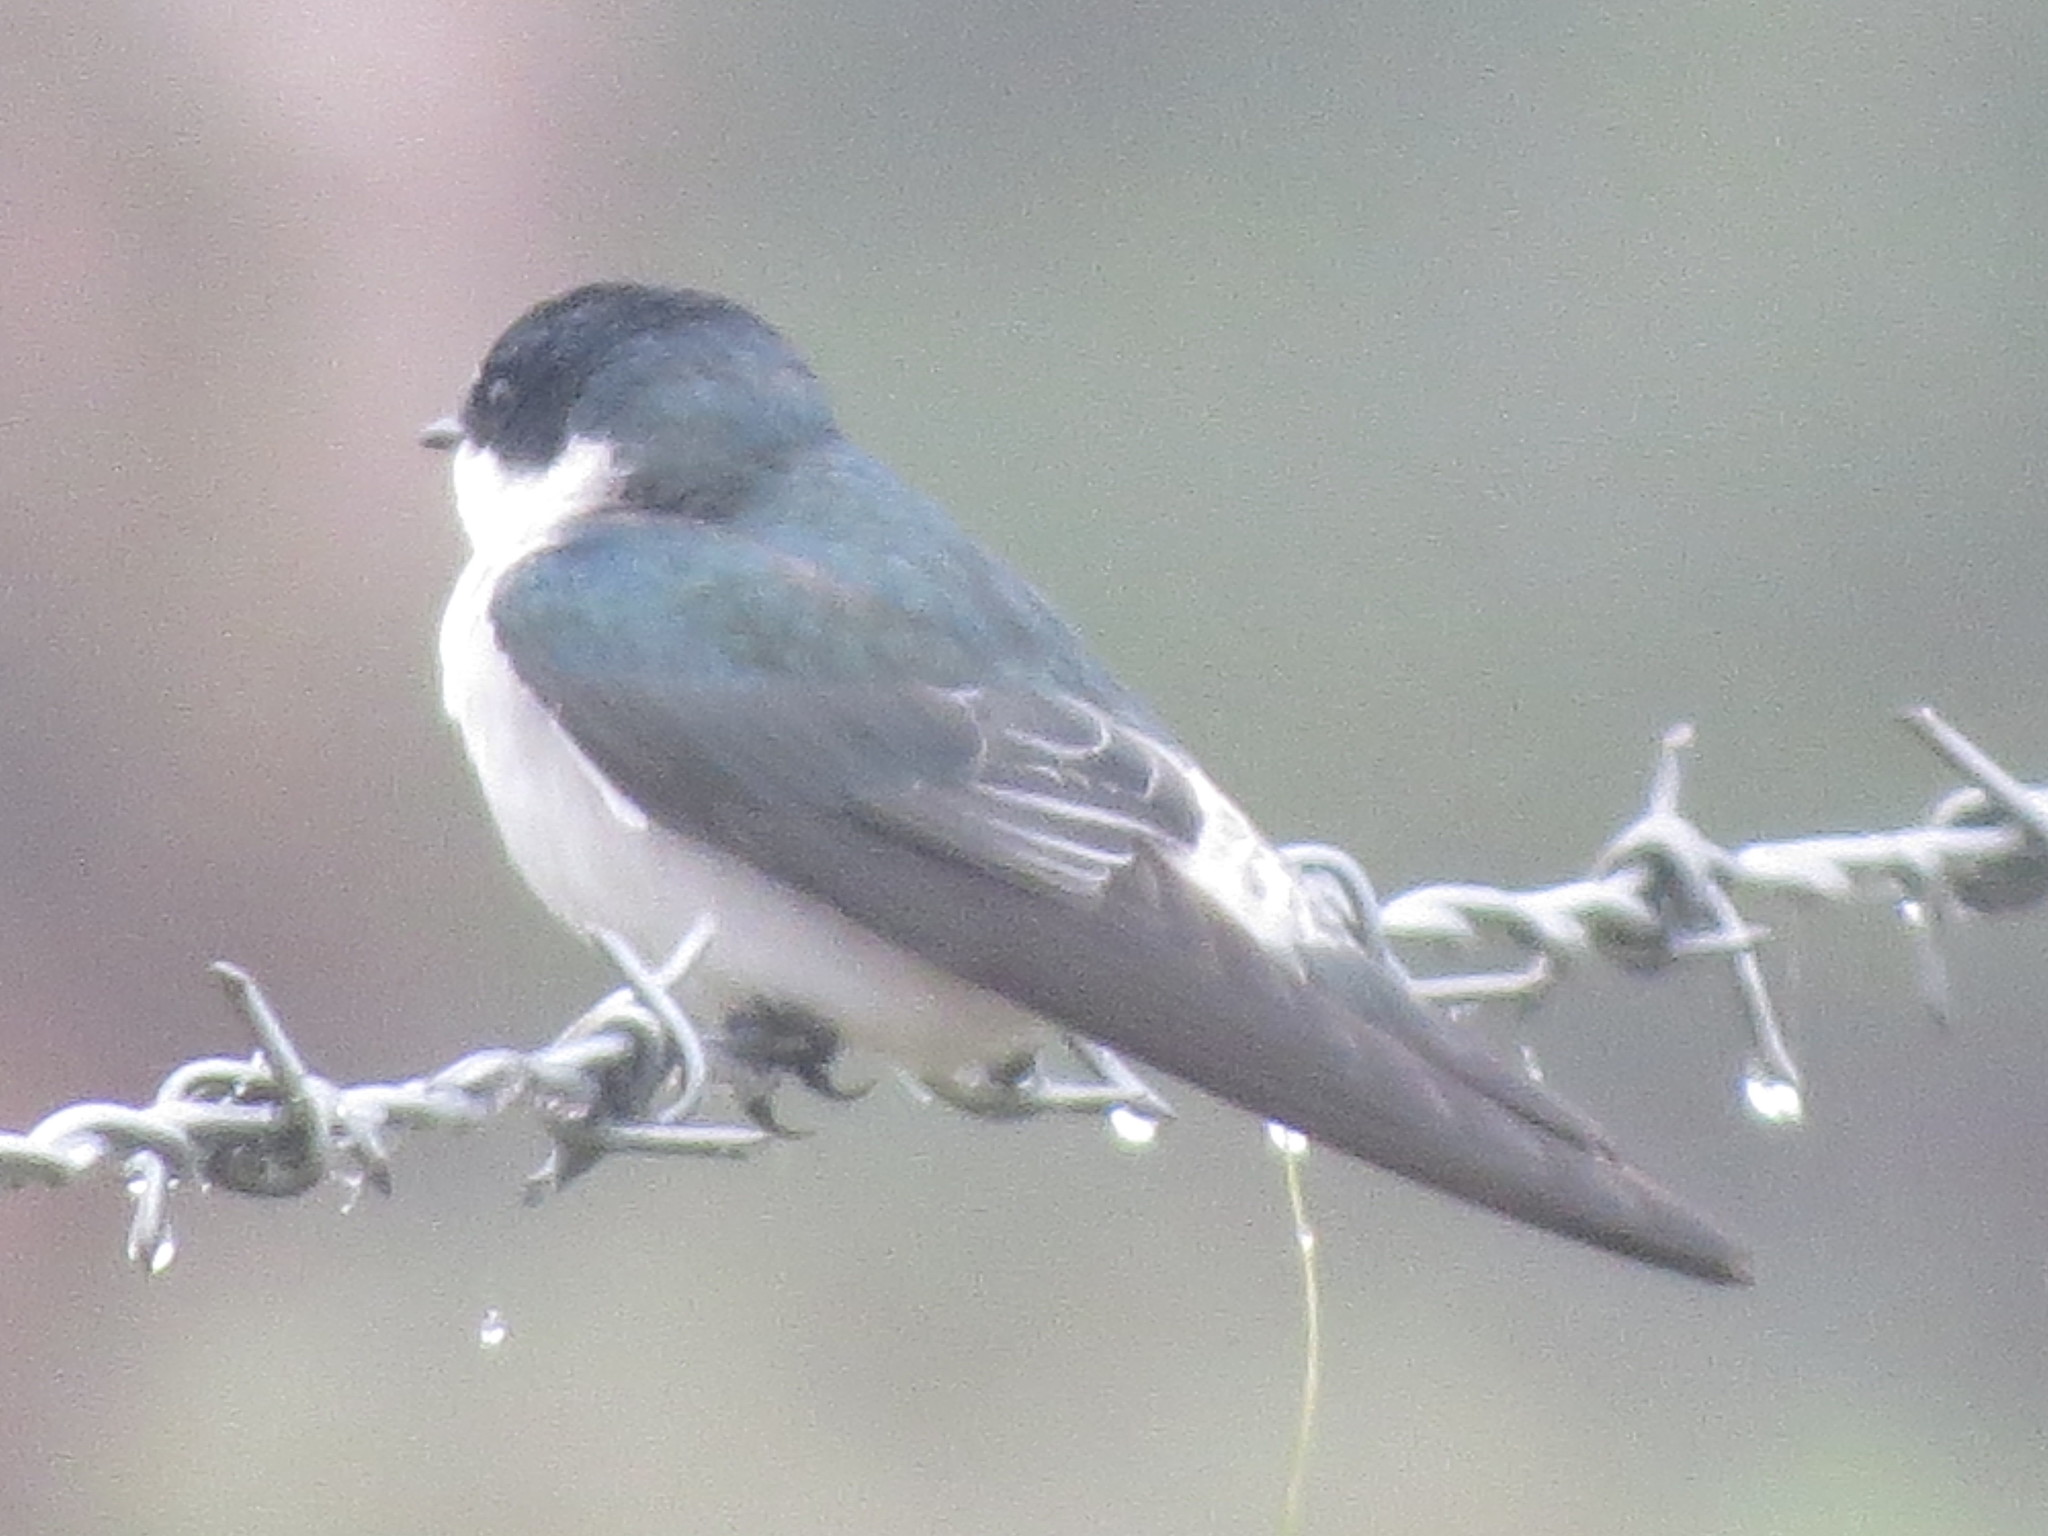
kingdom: Animalia
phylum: Chordata
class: Aves
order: Passeriformes
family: Hirundinidae
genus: Tachycineta
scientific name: Tachycineta albilinea
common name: Mangrove swallow
